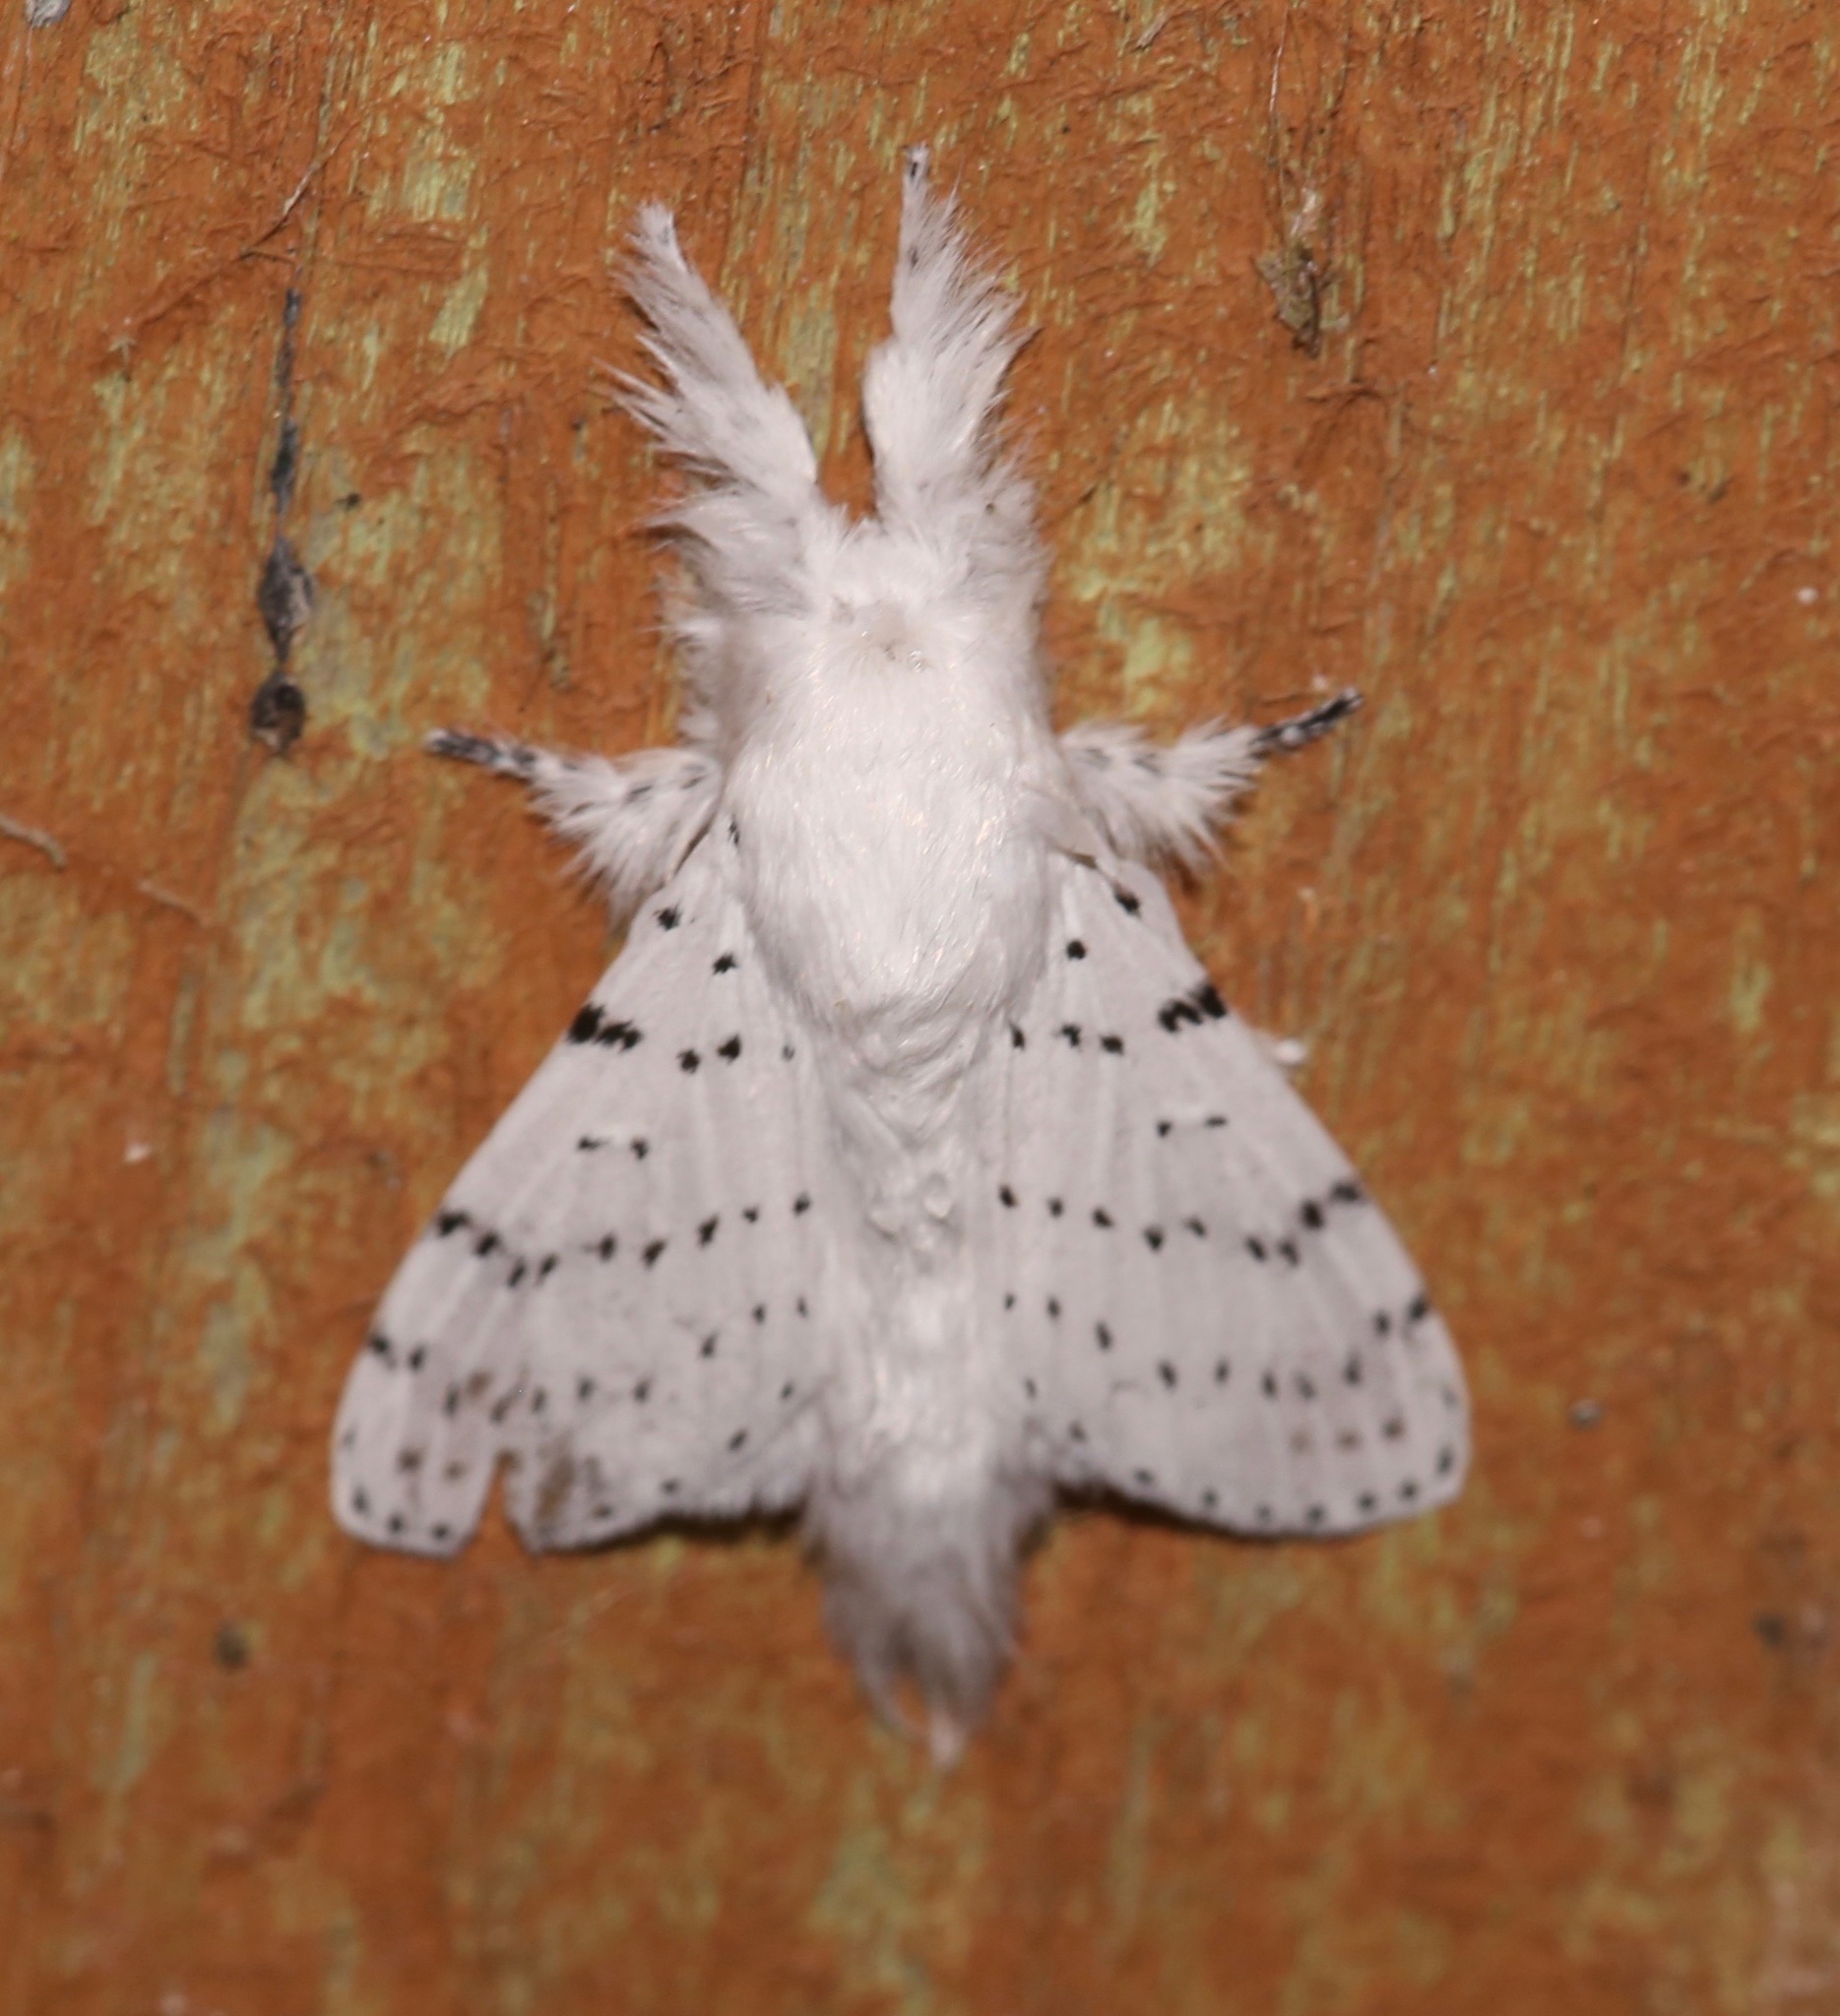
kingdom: Animalia
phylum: Arthropoda
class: Insecta
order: Lepidoptera
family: Lasiocampidae
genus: Artace
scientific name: Artace cribrarius
